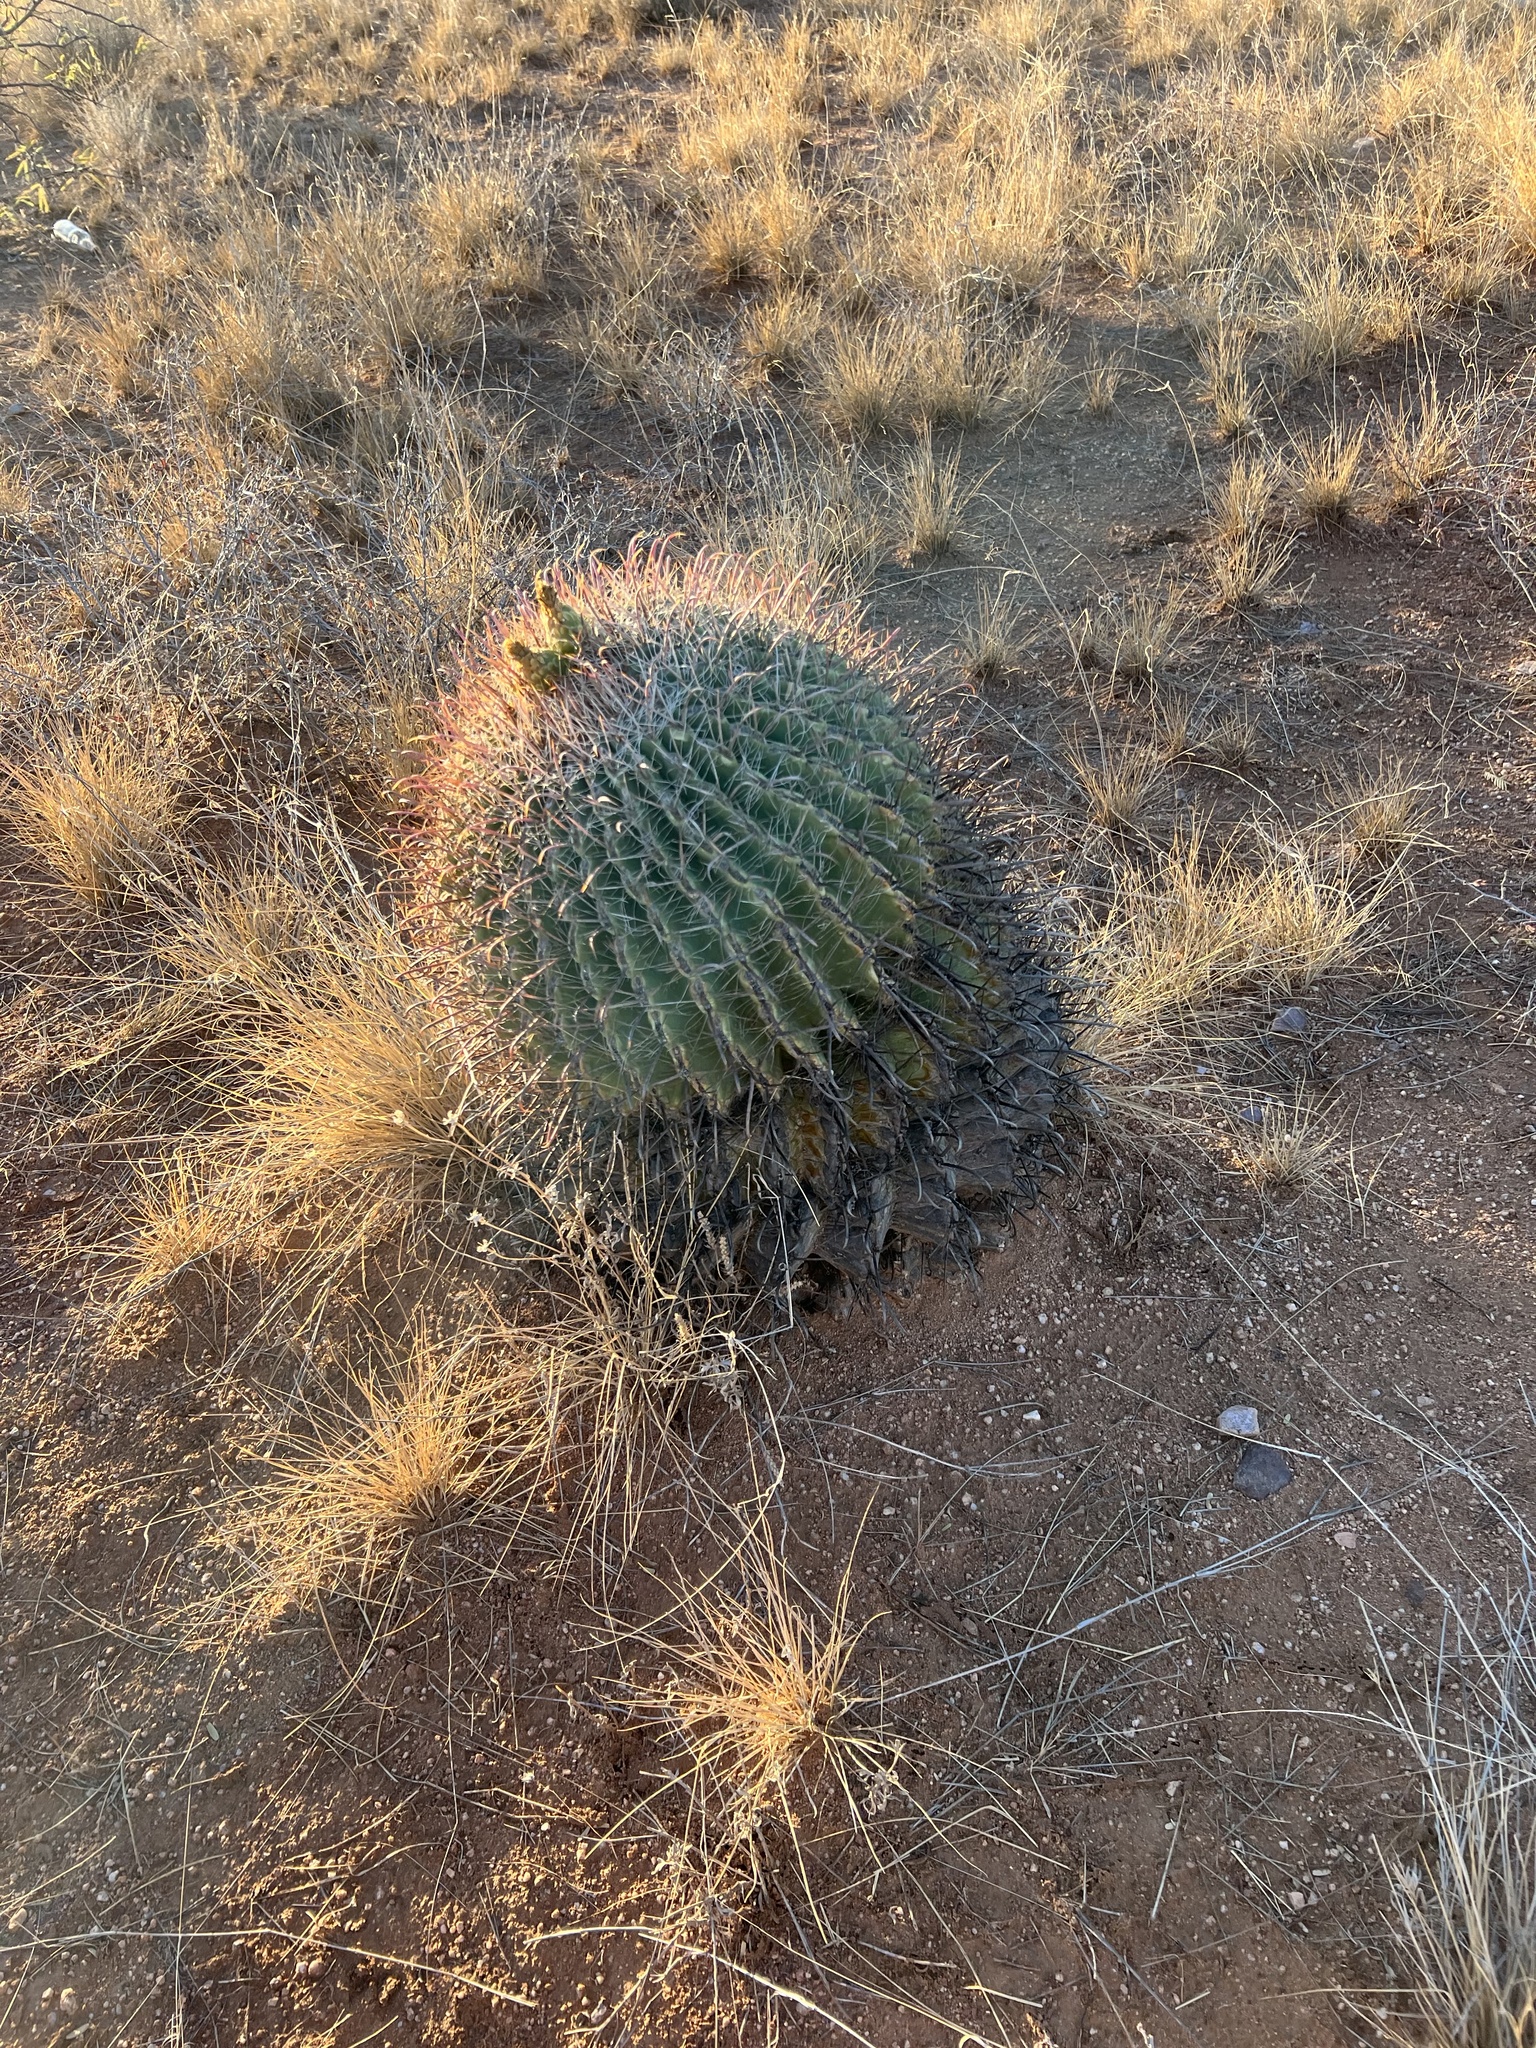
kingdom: Plantae
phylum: Tracheophyta
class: Magnoliopsida
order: Caryophyllales
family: Cactaceae
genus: Ferocactus
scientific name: Ferocactus wislizeni
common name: Candy barrel cactus
